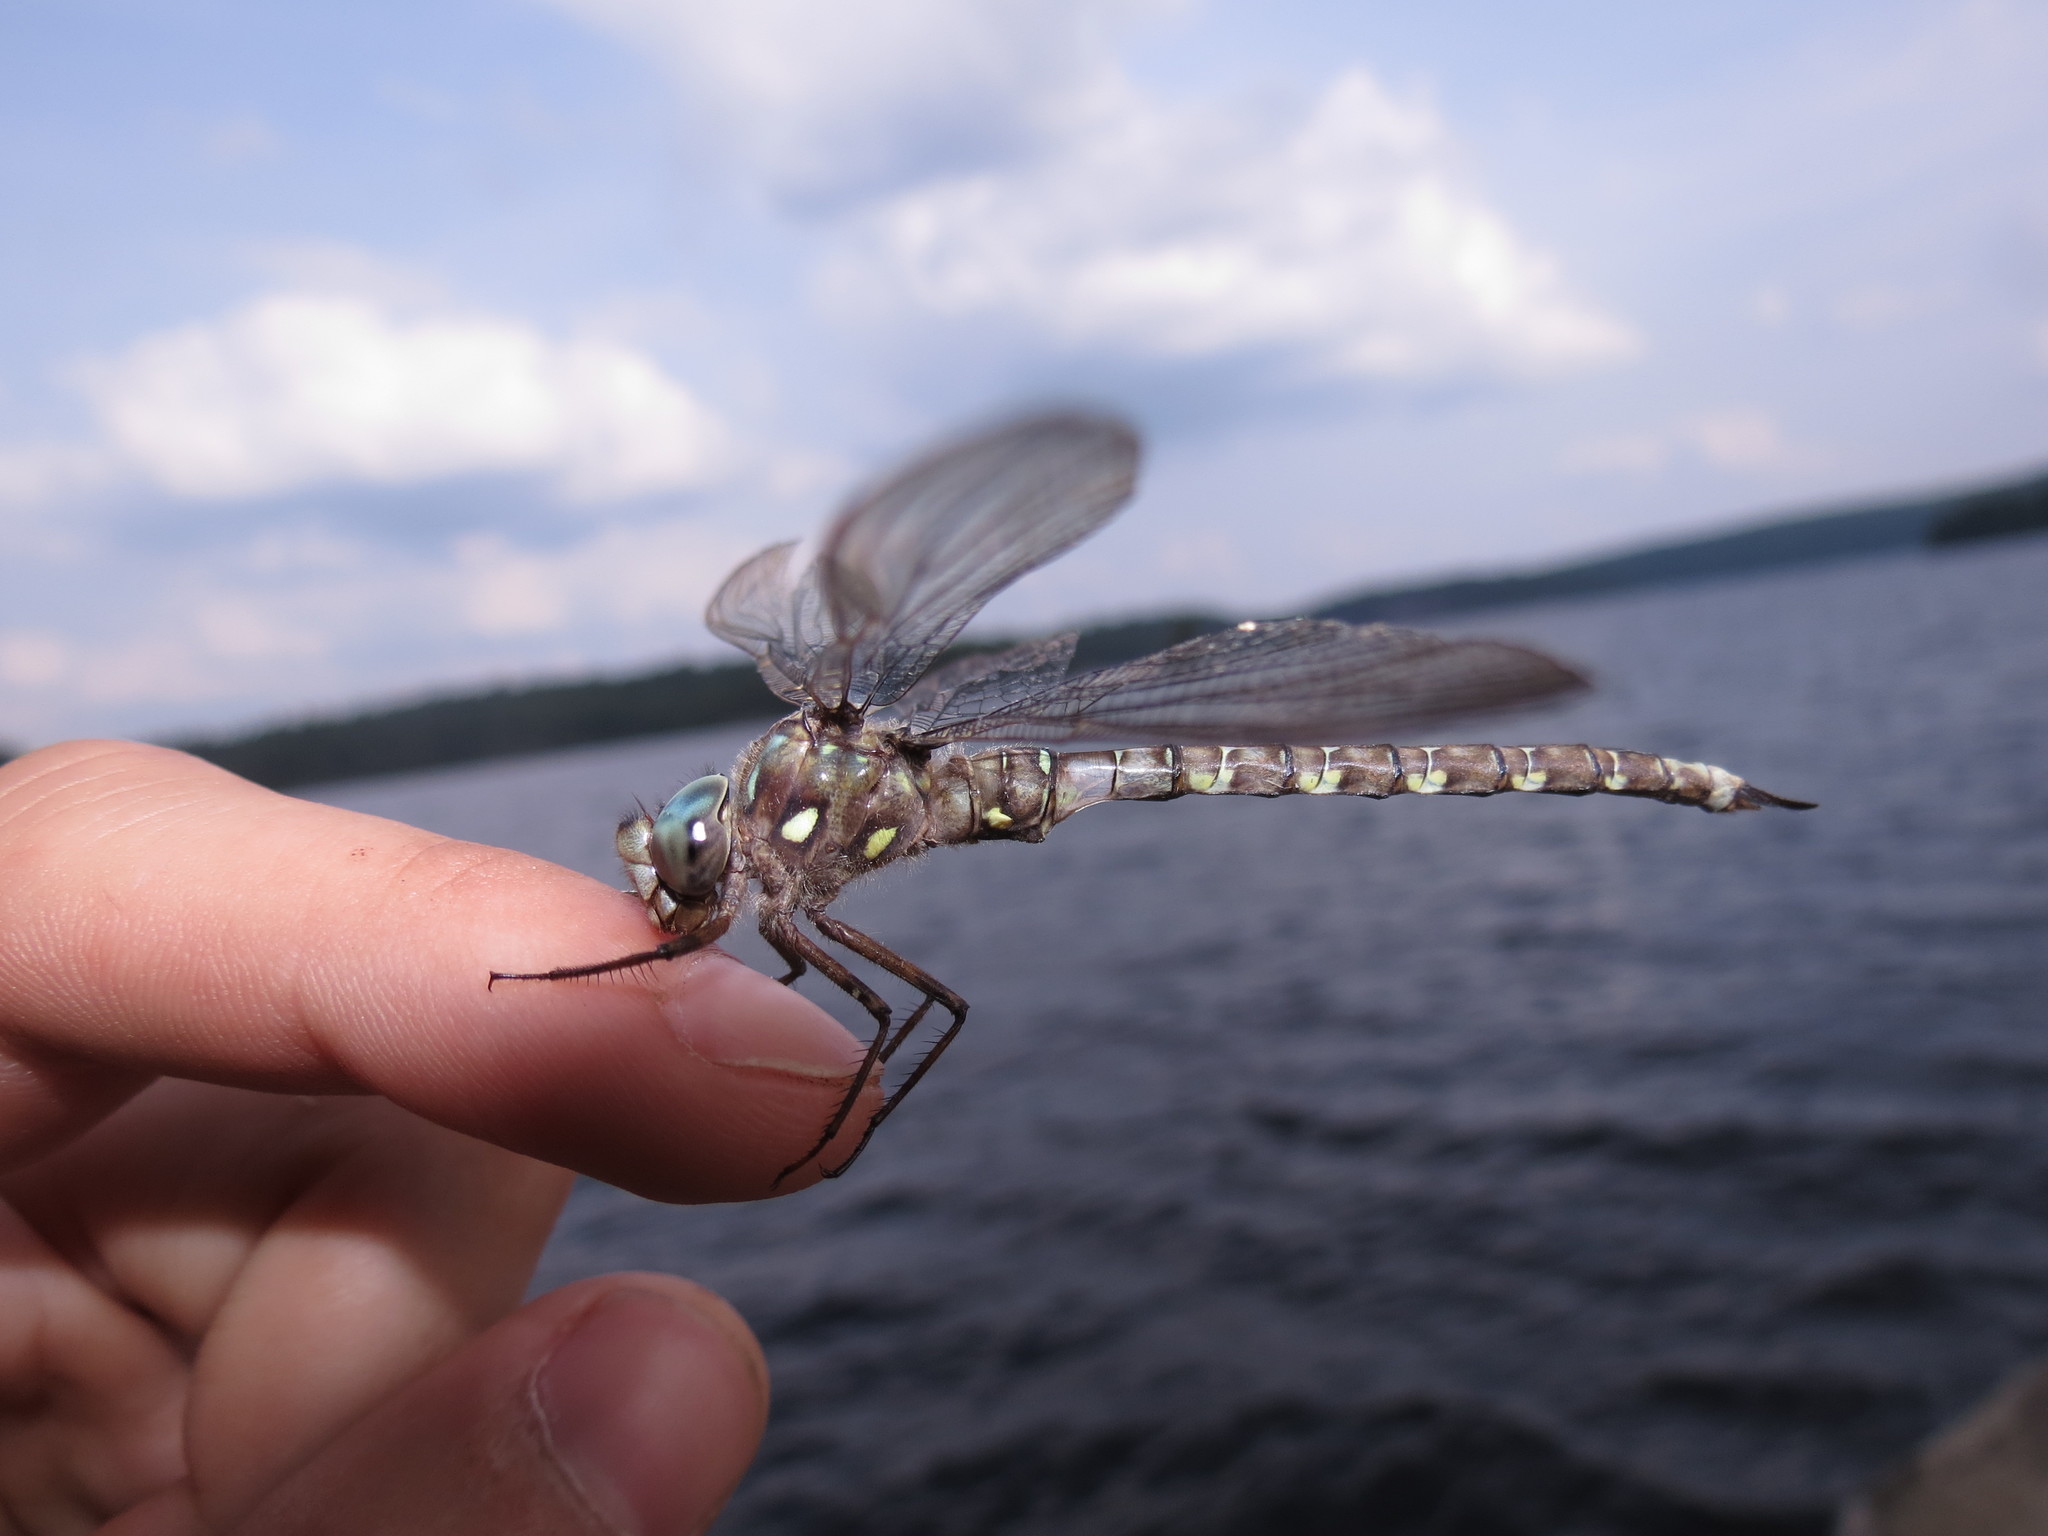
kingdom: Animalia
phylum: Arthropoda
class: Insecta
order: Odonata
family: Aeshnidae
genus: Boyeria
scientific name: Boyeria grafiana
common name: Ocellated darner
